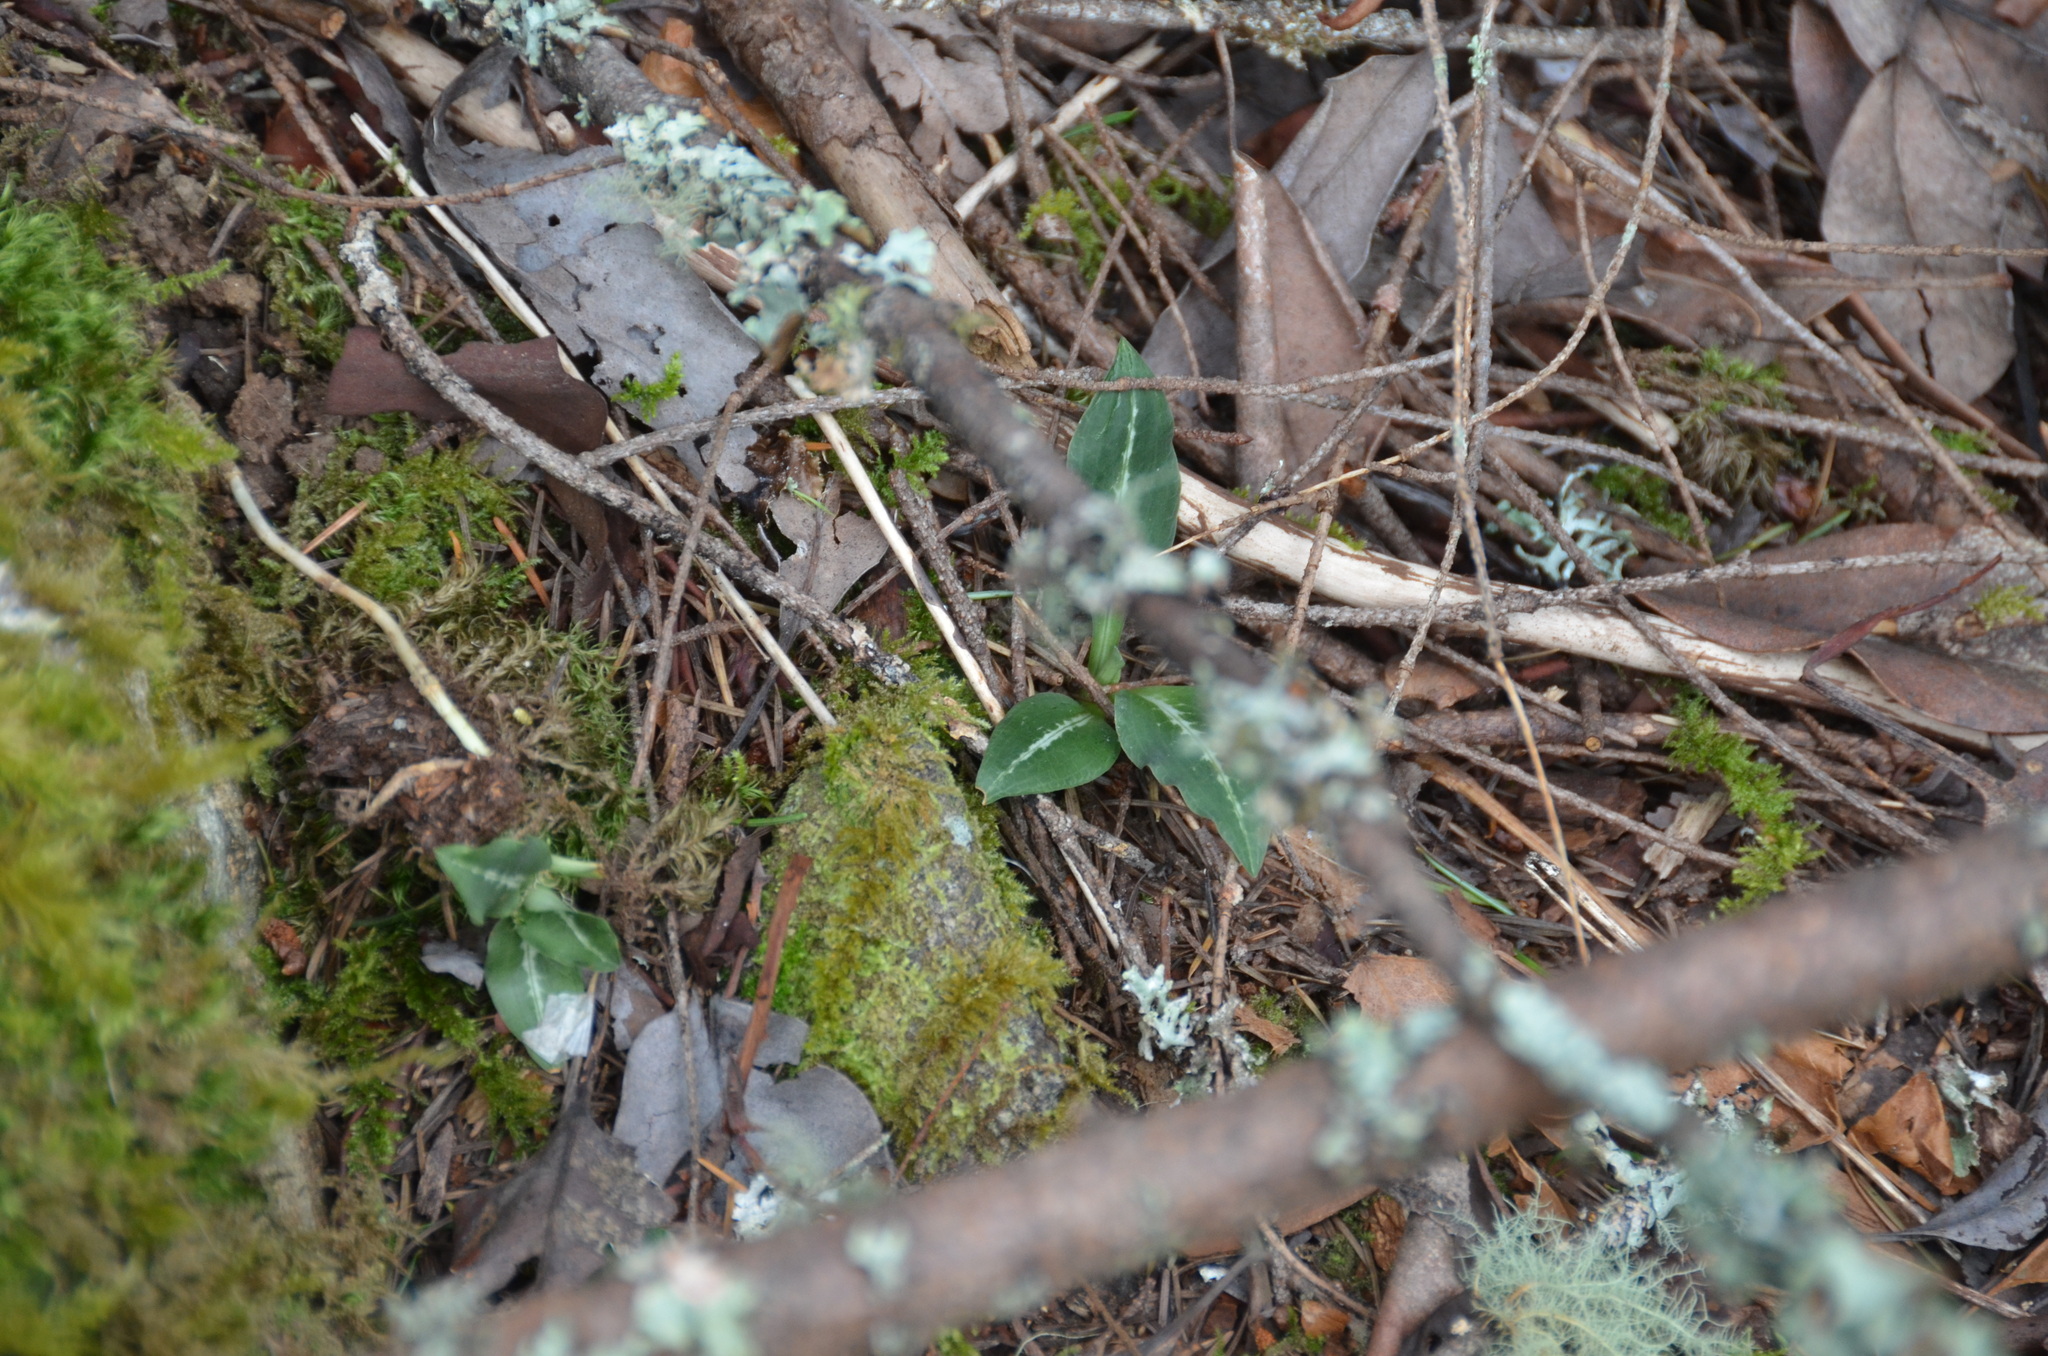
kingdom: Plantae
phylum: Tracheophyta
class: Liliopsida
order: Asparagales
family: Orchidaceae
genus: Goodyera
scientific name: Goodyera oblongifolia
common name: Giant rattlesnake-plantain
